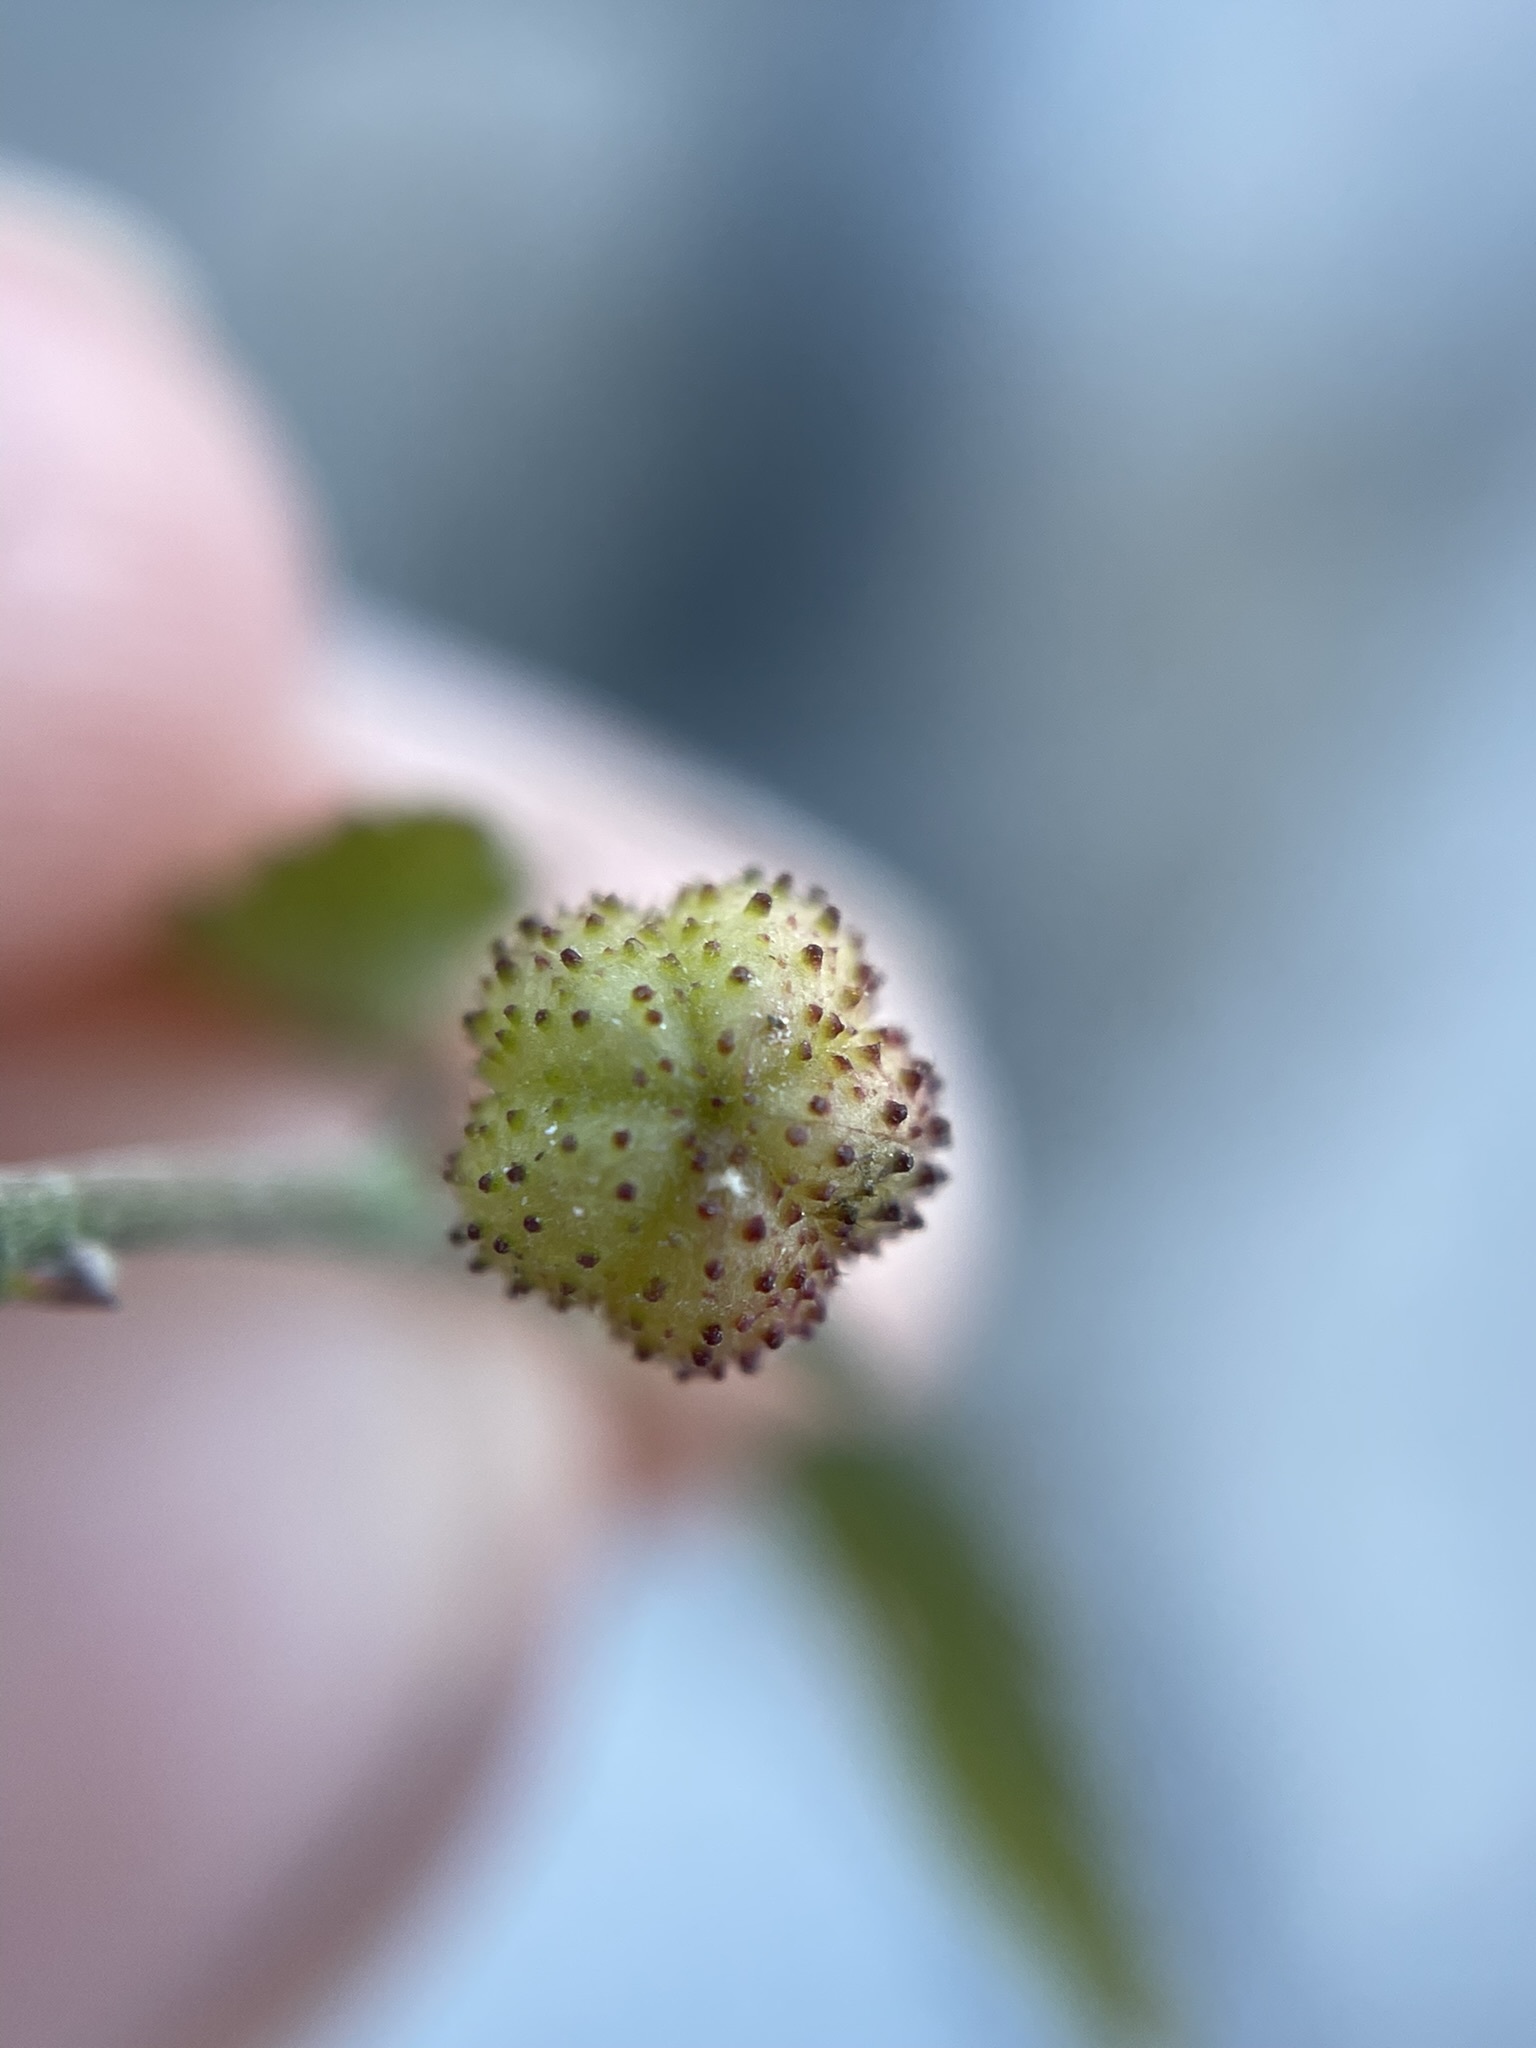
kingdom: Plantae
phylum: Tracheophyta
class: Magnoliopsida
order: Malvales
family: Malvaceae
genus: Ayenia
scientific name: Ayenia compacta
